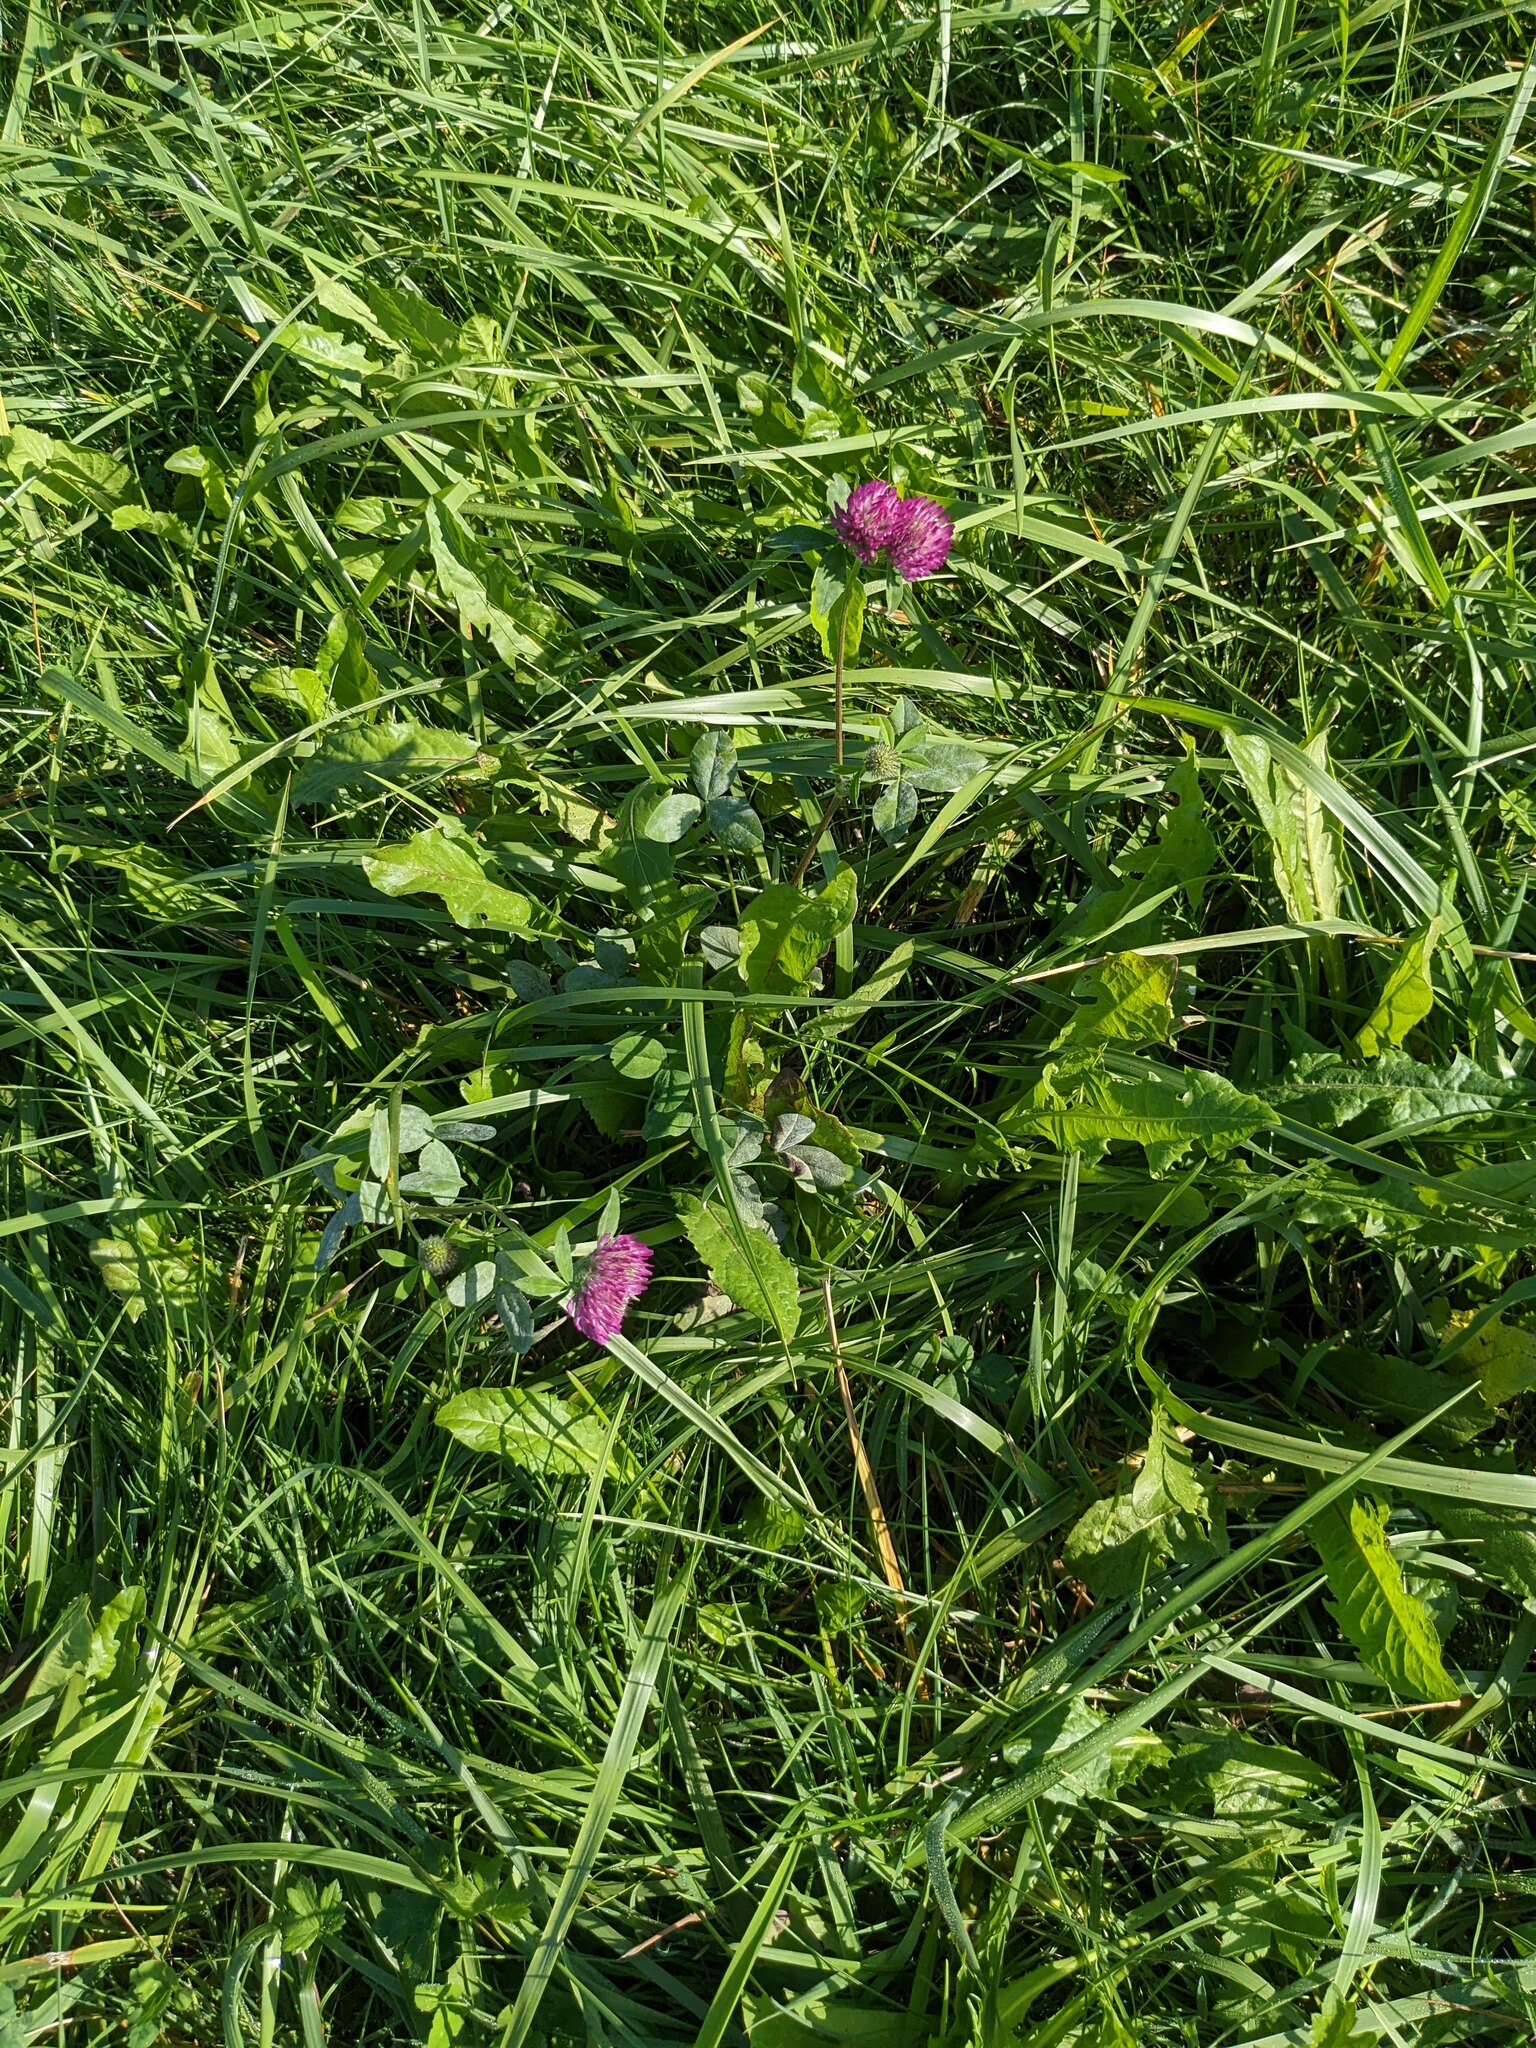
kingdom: Plantae
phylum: Tracheophyta
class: Magnoliopsida
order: Fabales
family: Fabaceae
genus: Trifolium
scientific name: Trifolium pratense
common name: Red clover
